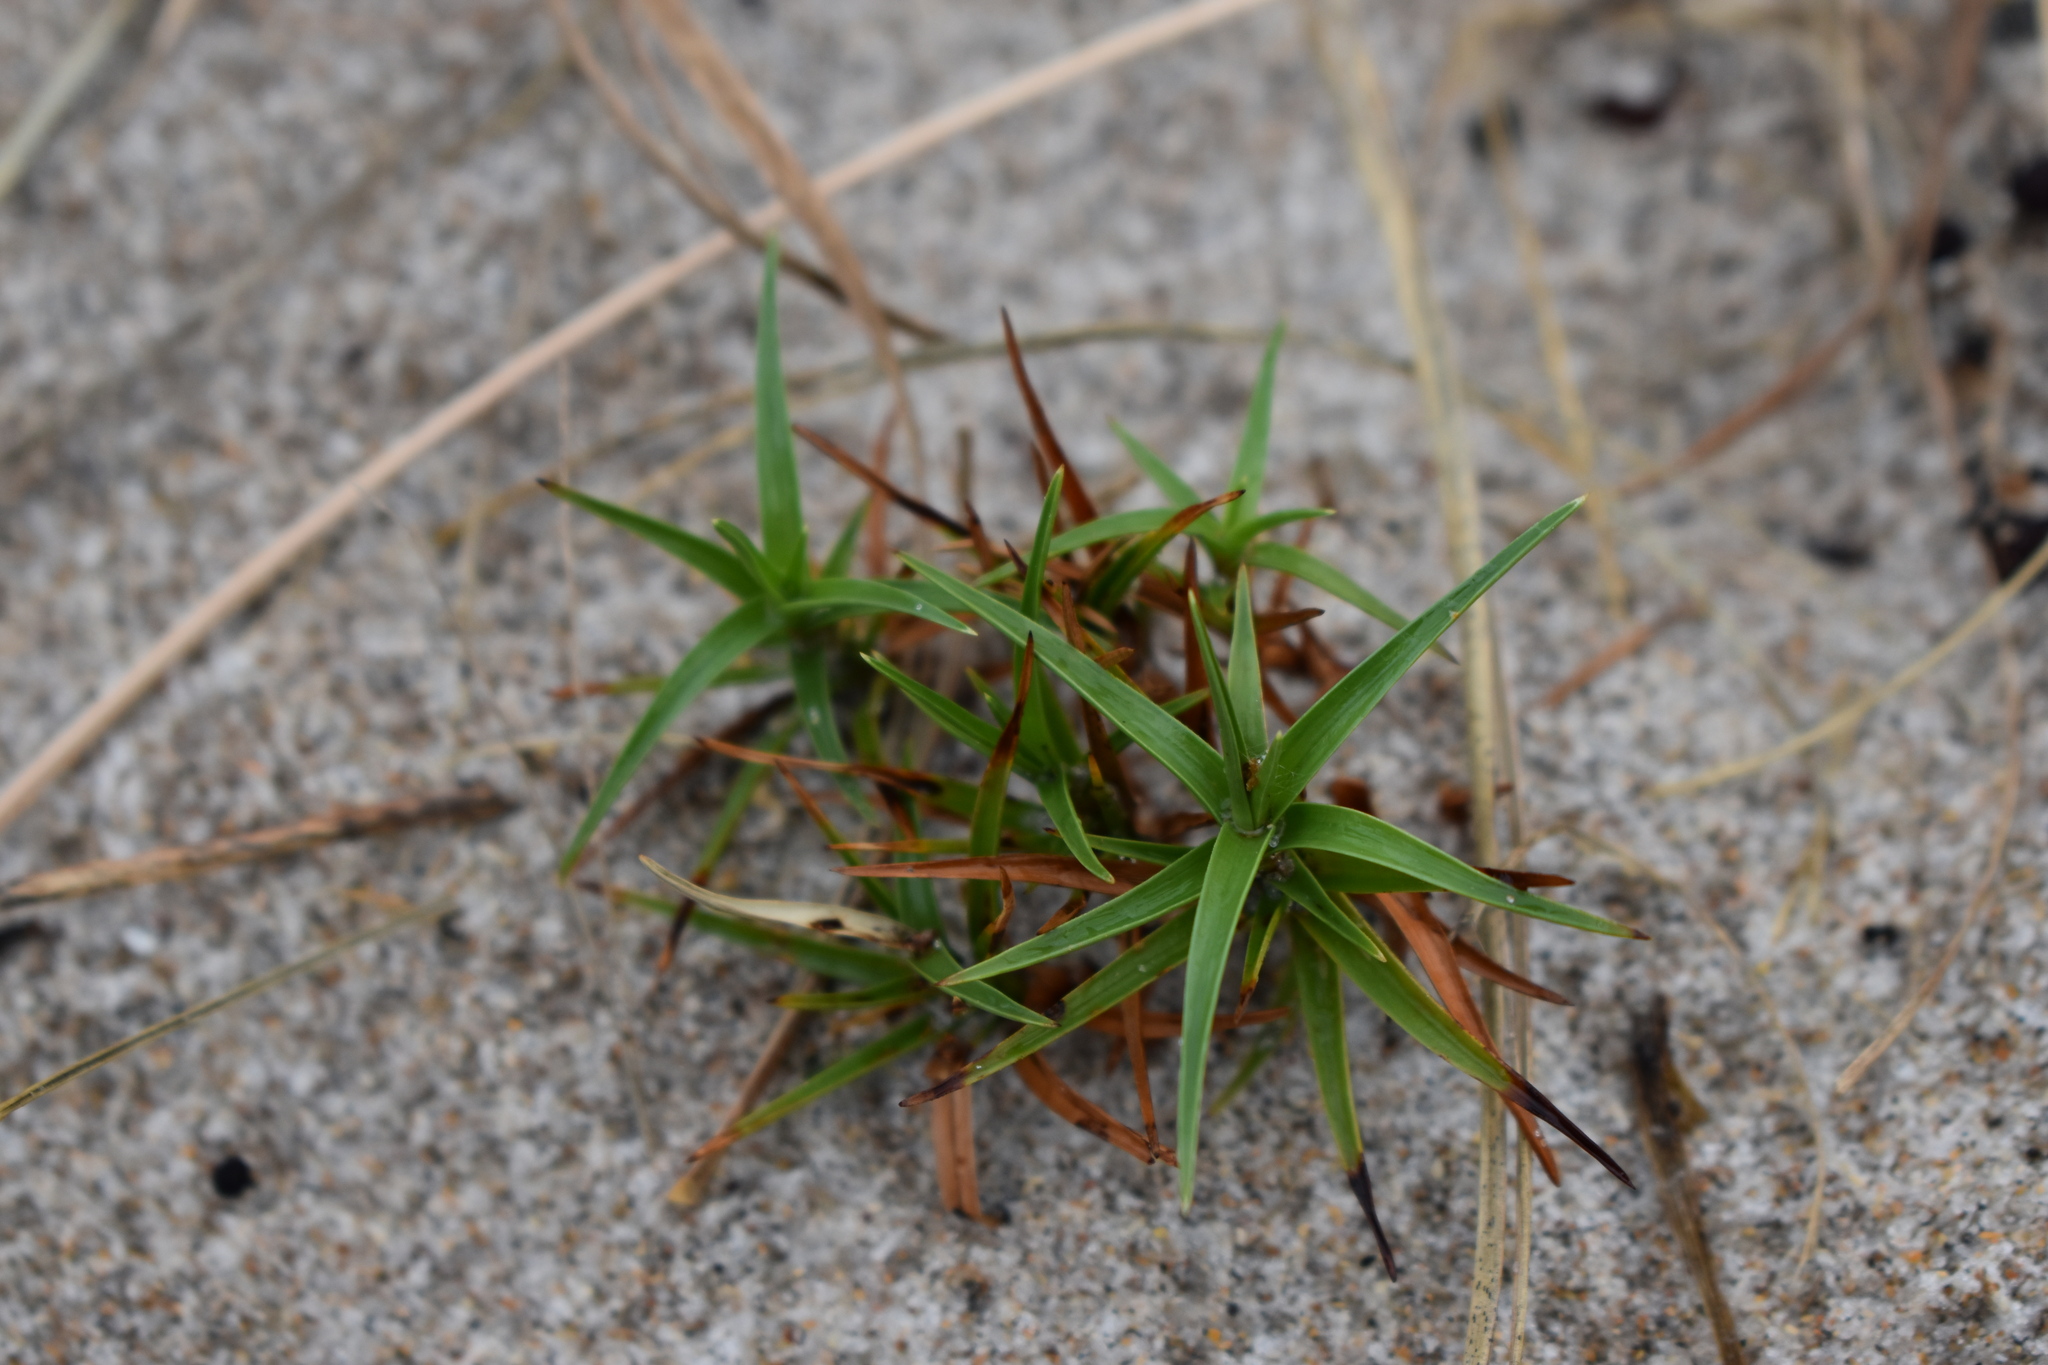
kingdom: Plantae
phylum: Tracheophyta
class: Liliopsida
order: Poales
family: Cyperaceae
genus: Cyperus
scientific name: Cyperus pedunculatus
